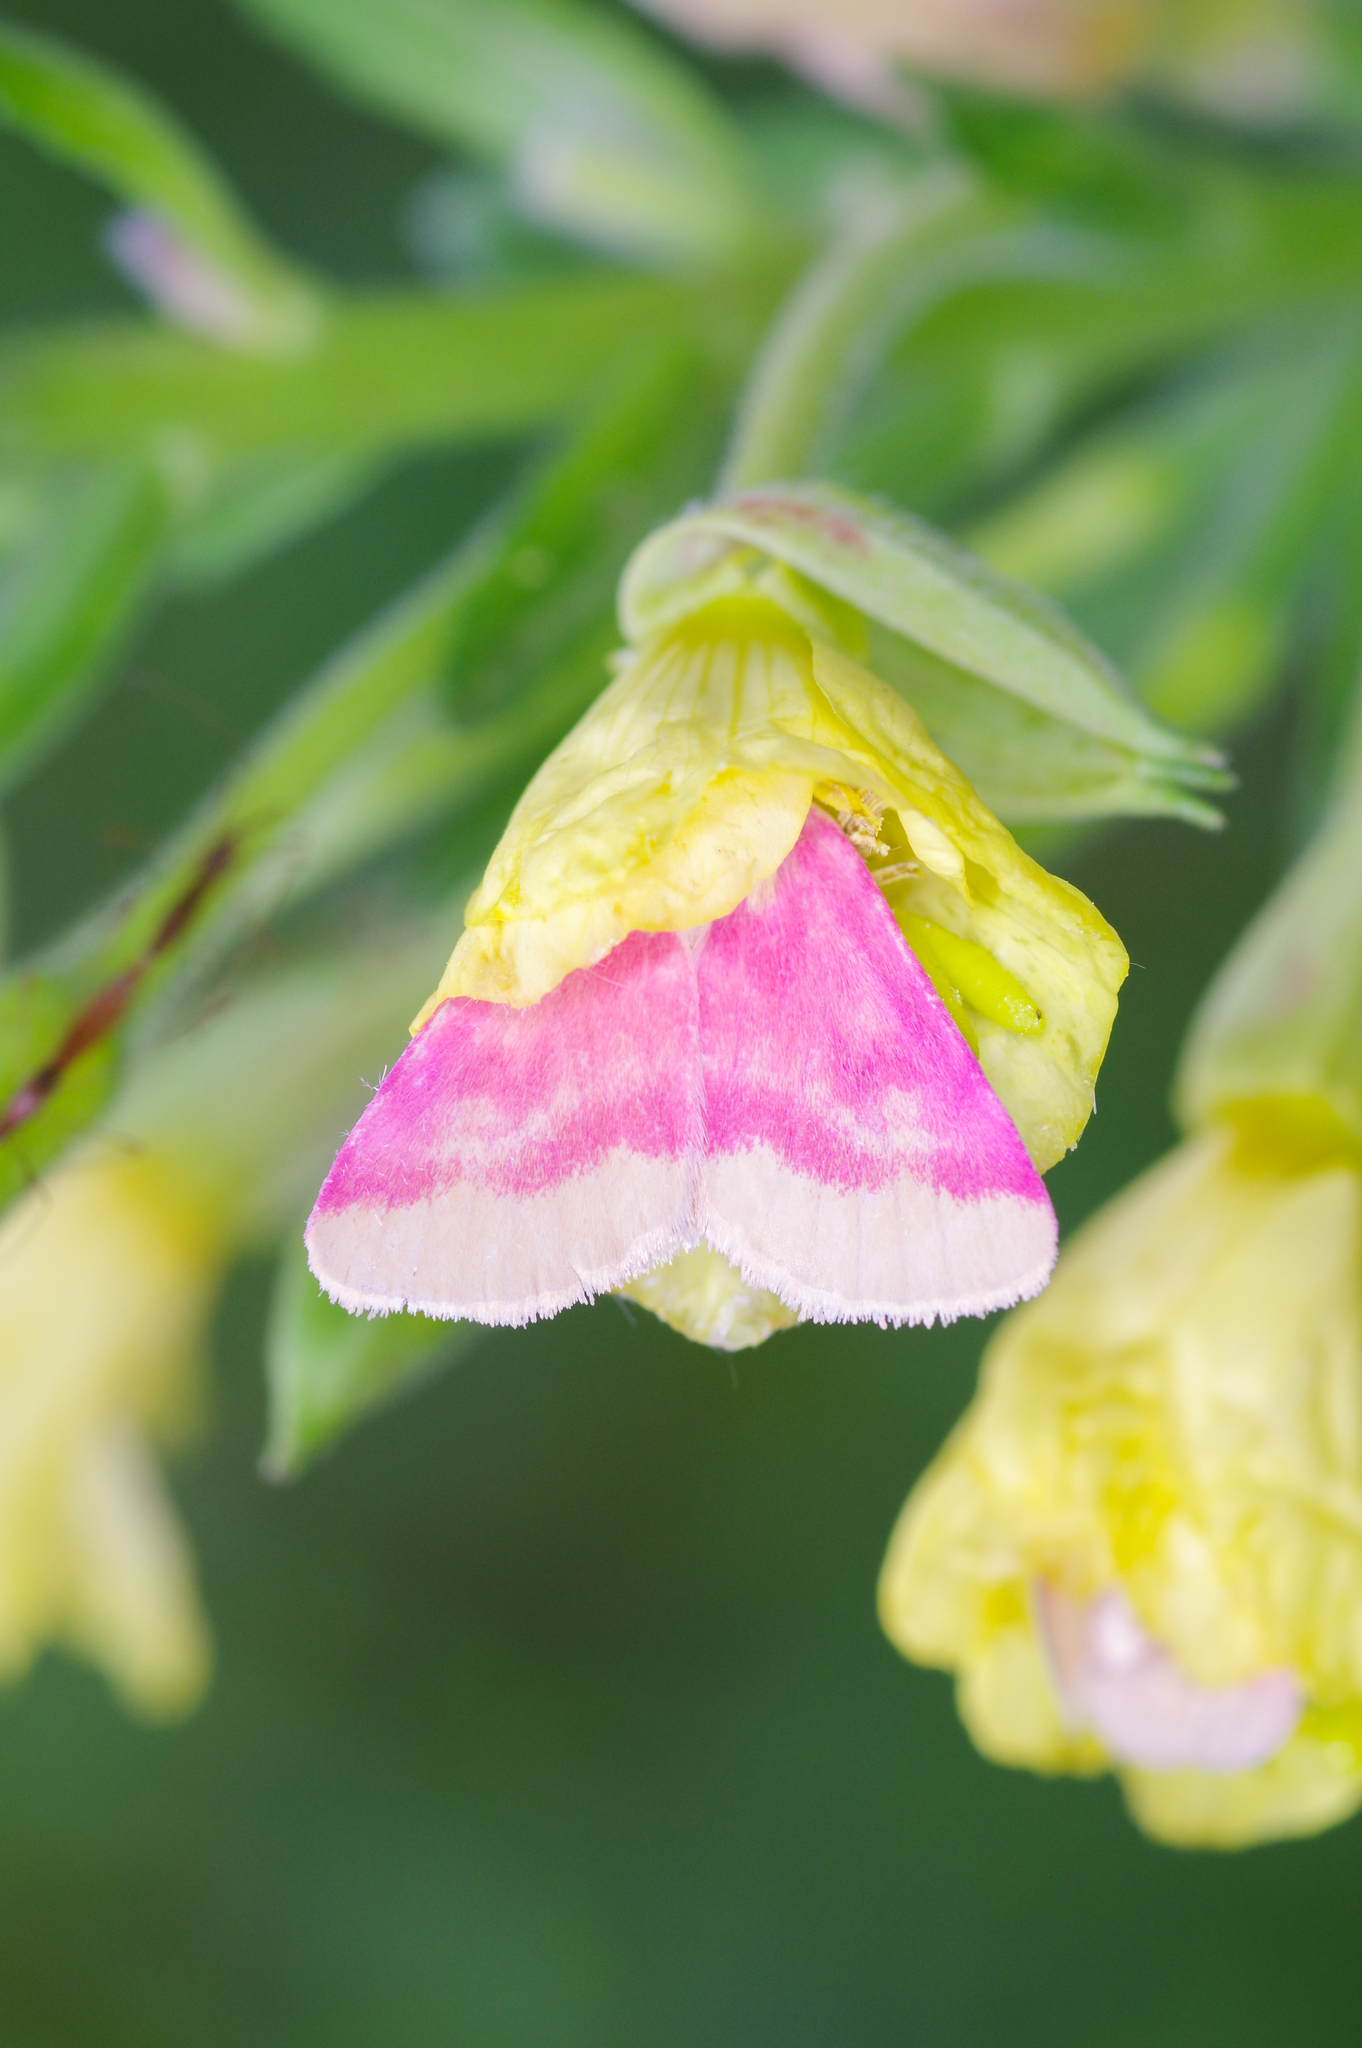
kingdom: Animalia
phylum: Arthropoda
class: Insecta
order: Lepidoptera
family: Noctuidae
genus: Schinia
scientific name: Schinia florida
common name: Primrose moth
